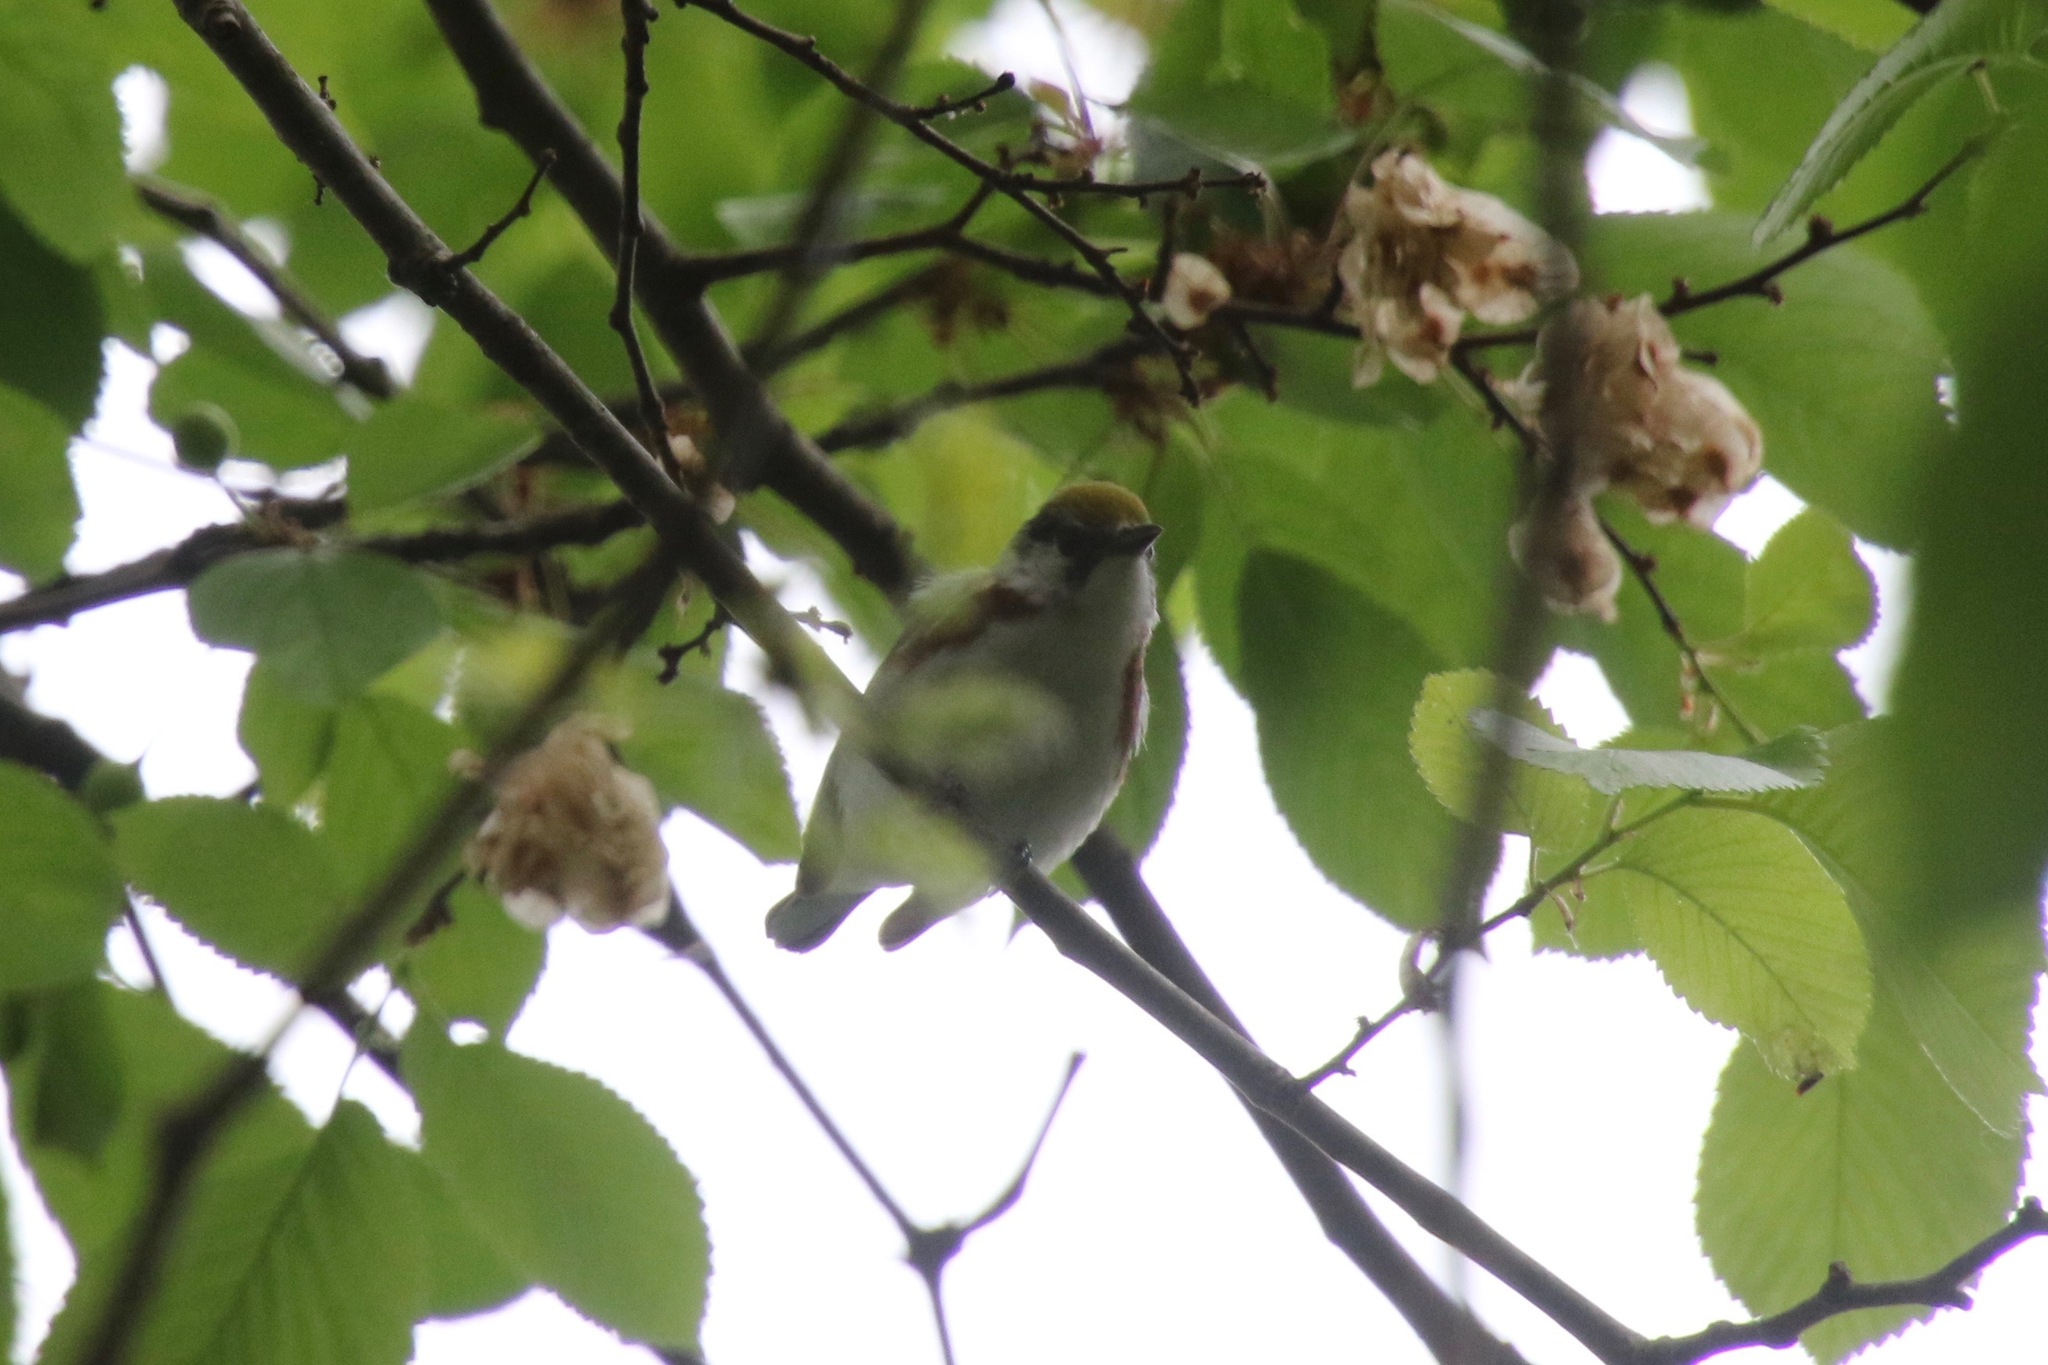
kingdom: Animalia
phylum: Chordata
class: Aves
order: Passeriformes
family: Parulidae
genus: Setophaga
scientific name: Setophaga pensylvanica
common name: Chestnut-sided warbler
